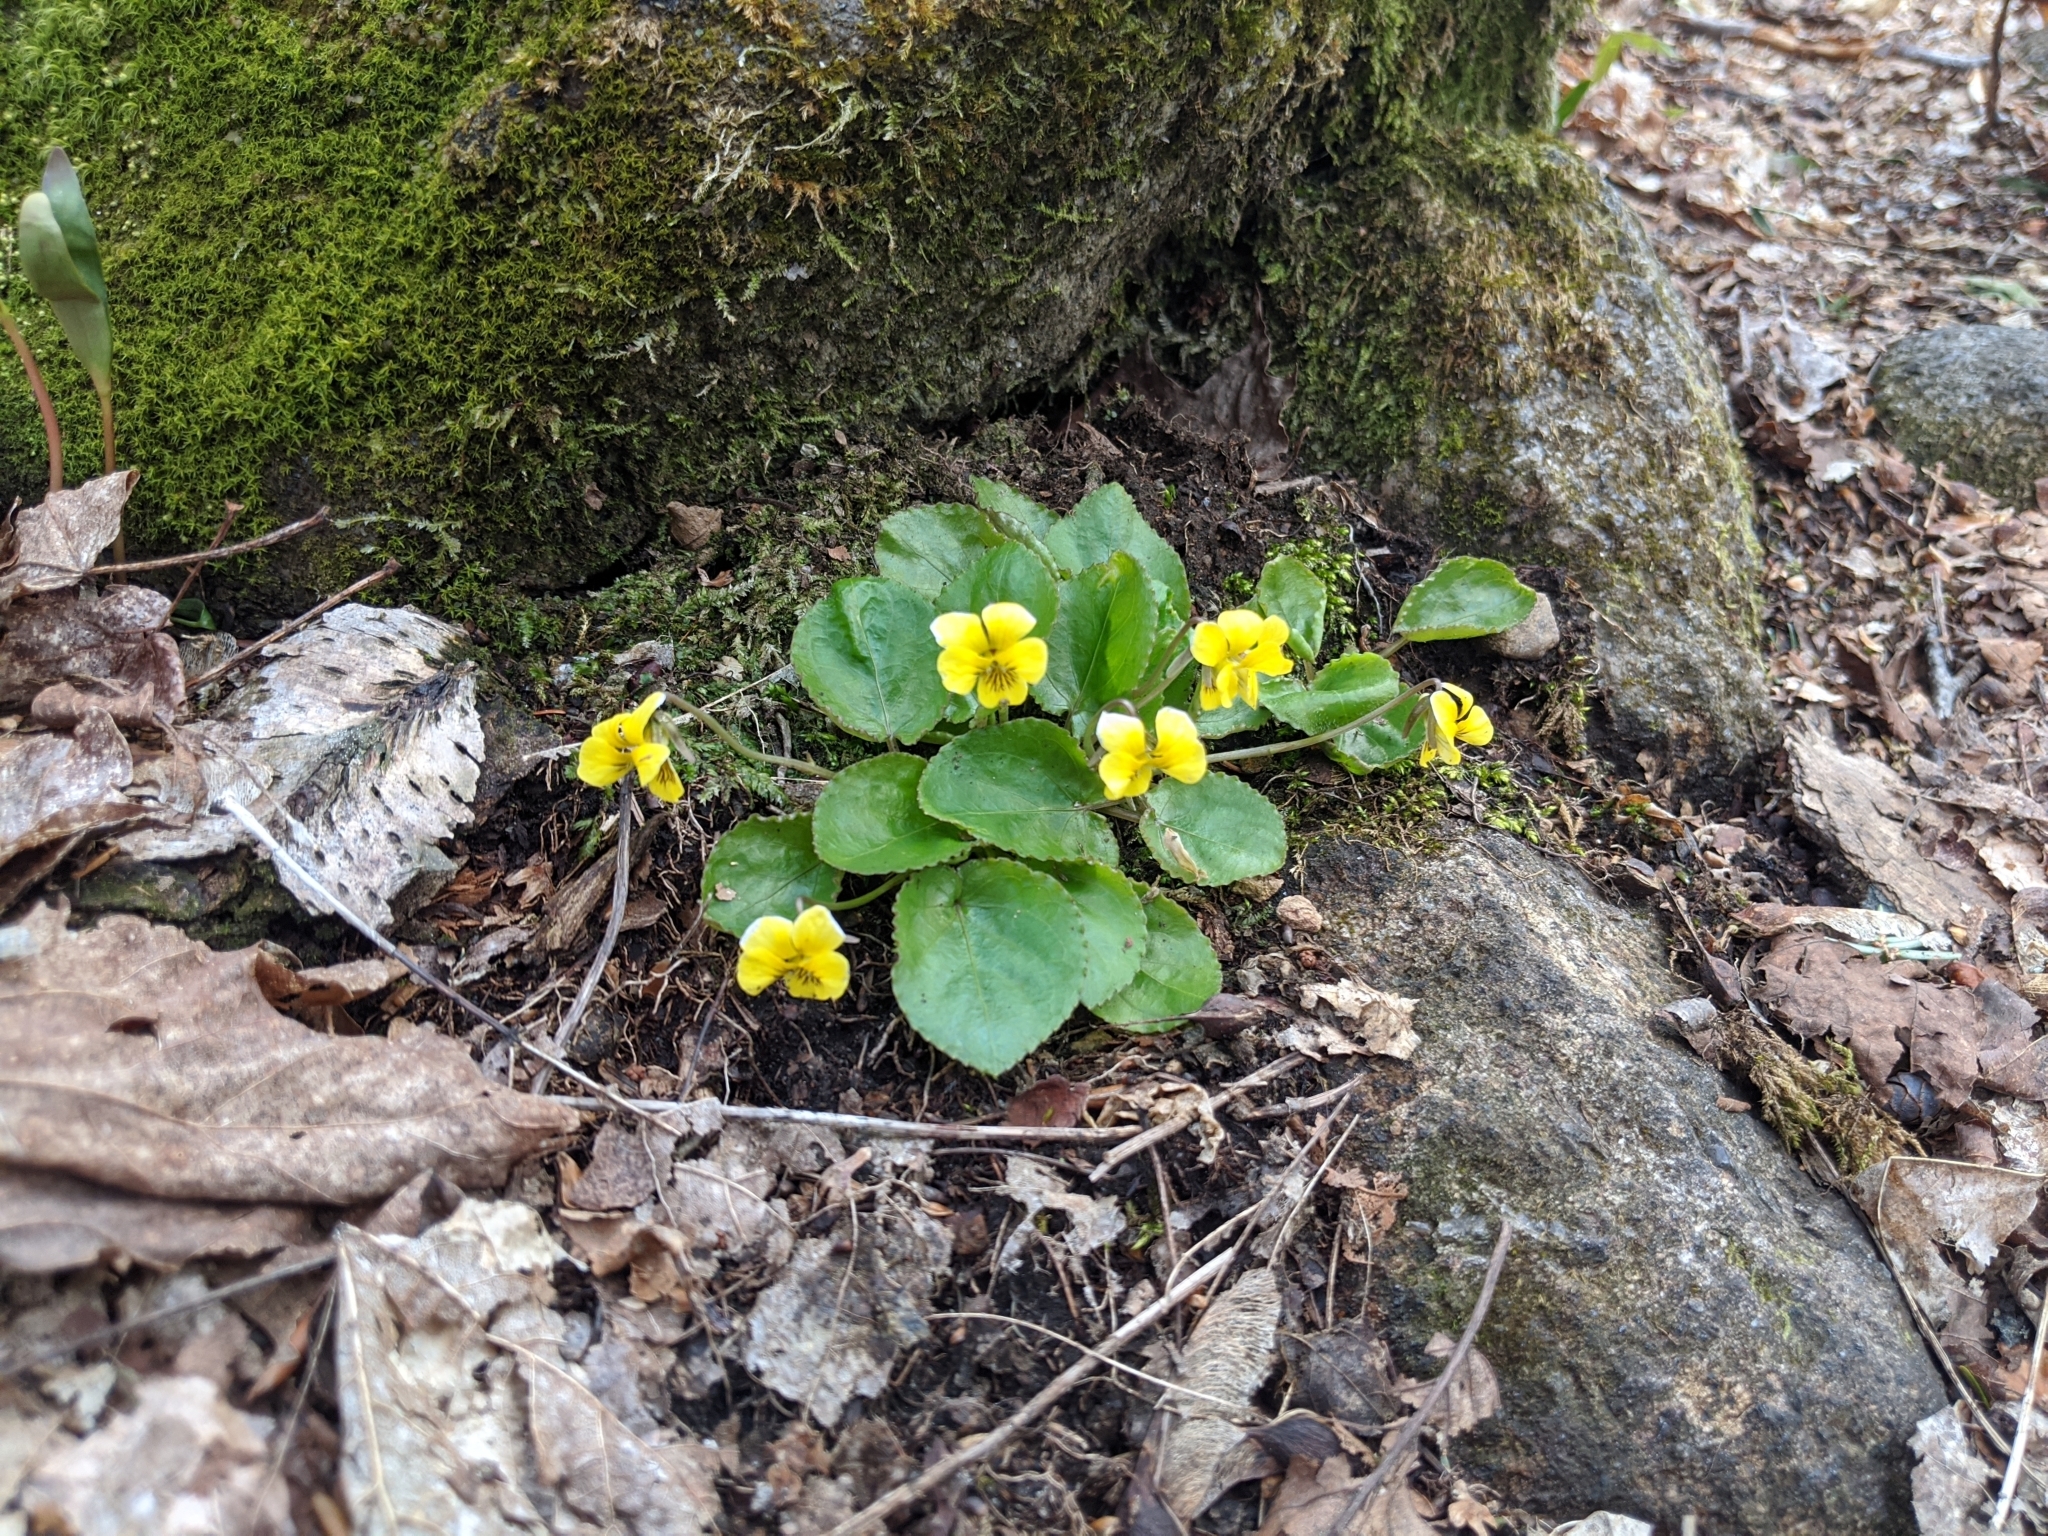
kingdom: Plantae
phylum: Tracheophyta
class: Magnoliopsida
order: Malpighiales
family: Violaceae
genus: Viola
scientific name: Viola rotundifolia
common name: Early yellow violet
